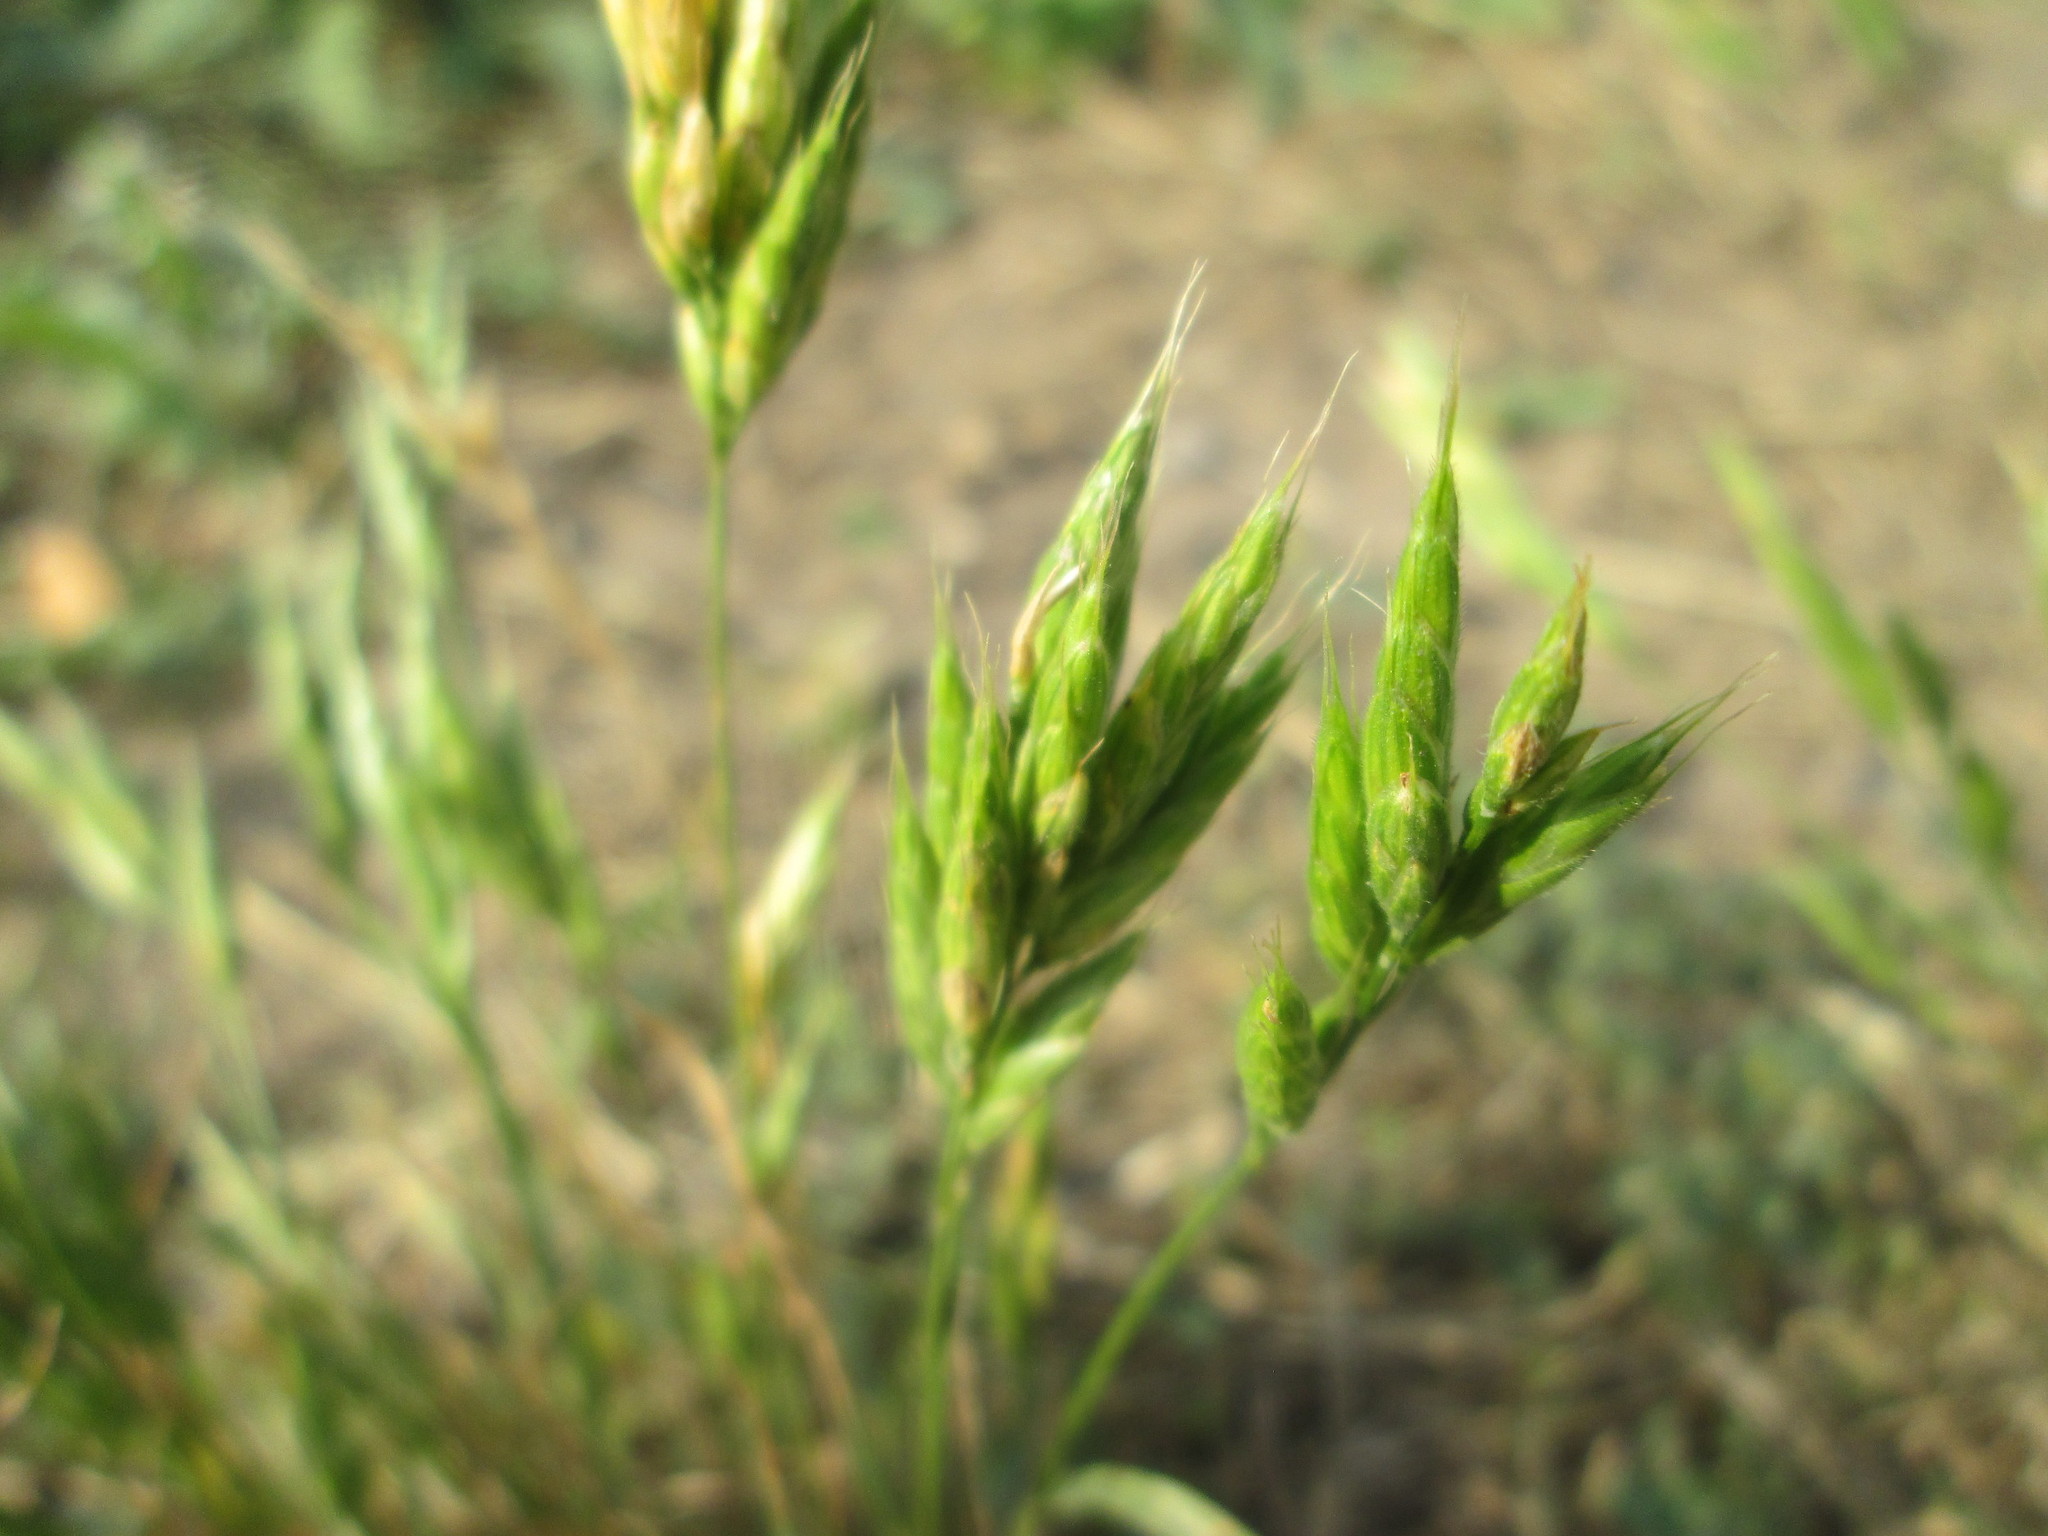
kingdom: Plantae
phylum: Tracheophyta
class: Liliopsida
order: Poales
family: Poaceae
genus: Bromus
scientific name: Bromus hordeaceus
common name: Soft brome
